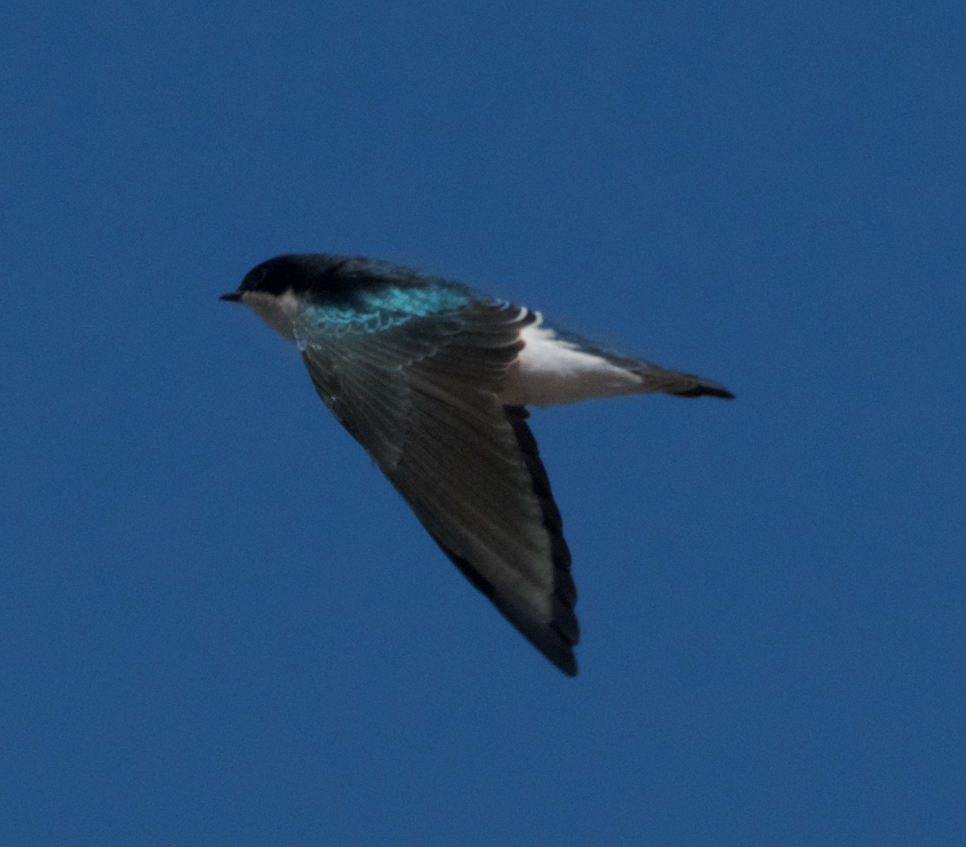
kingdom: Animalia
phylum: Chordata
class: Aves
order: Passeriformes
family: Hirundinidae
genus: Tachycineta
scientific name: Tachycineta bicolor
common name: Tree swallow
